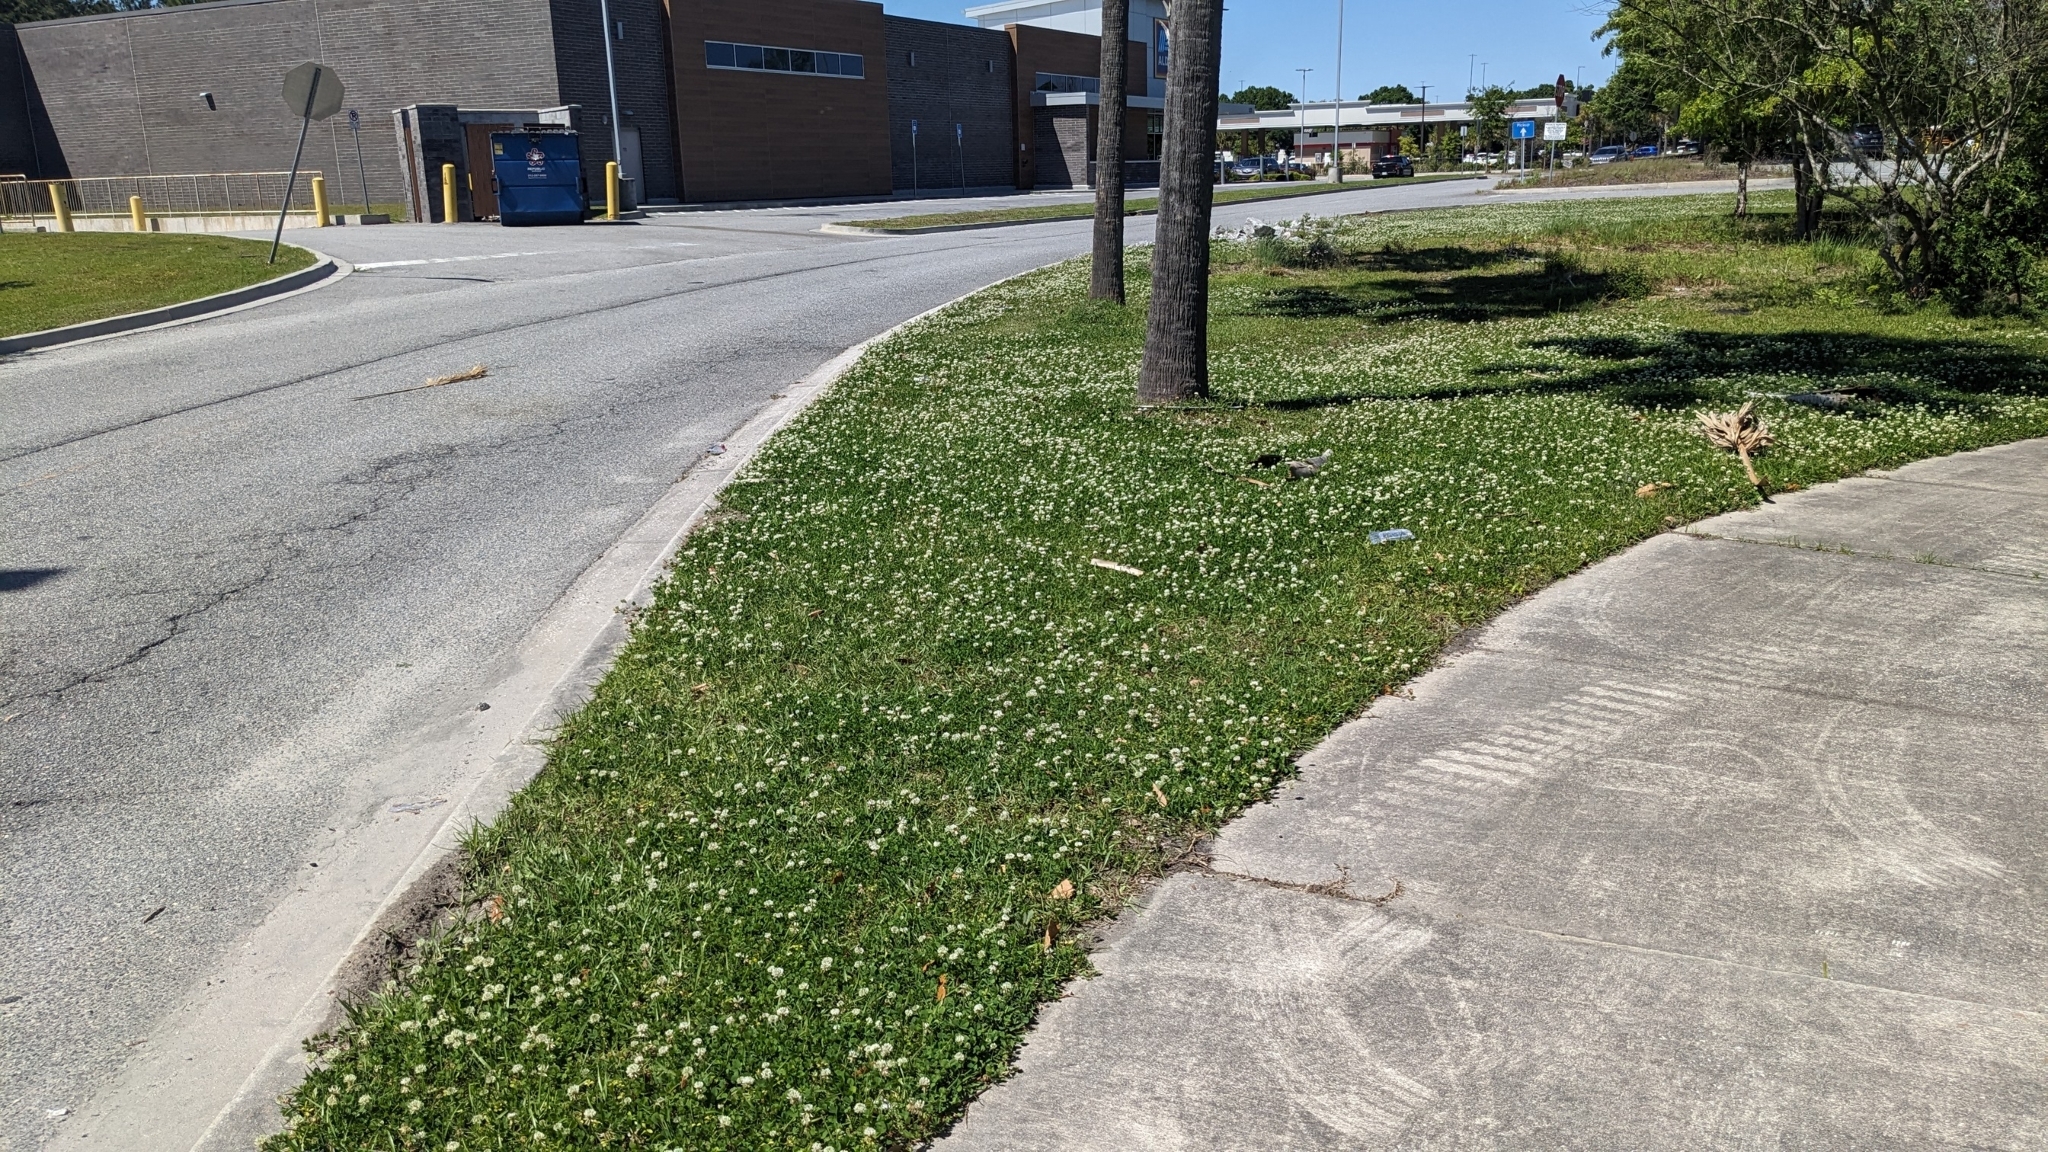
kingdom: Plantae
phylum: Tracheophyta
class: Magnoliopsida
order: Fabales
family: Fabaceae
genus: Trifolium
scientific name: Trifolium repens
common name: White clover
